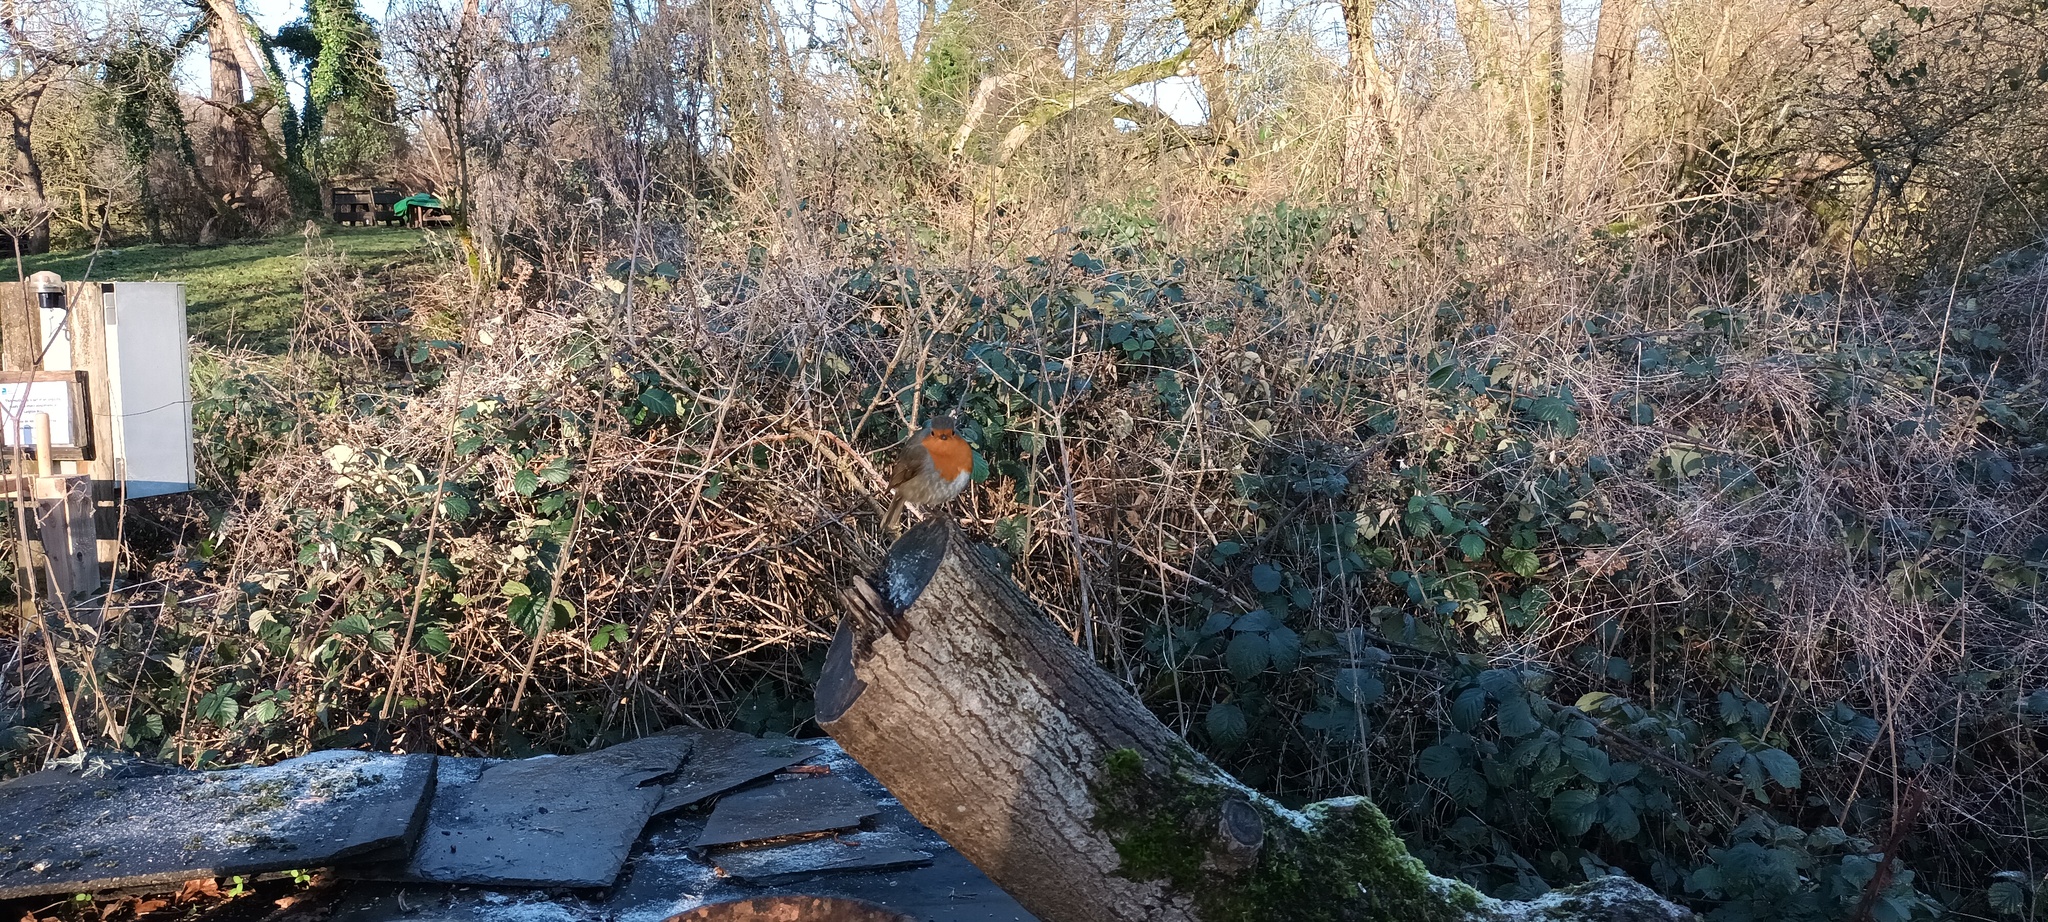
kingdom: Animalia
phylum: Chordata
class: Aves
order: Passeriformes
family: Muscicapidae
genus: Erithacus
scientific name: Erithacus rubecula
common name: European robin
